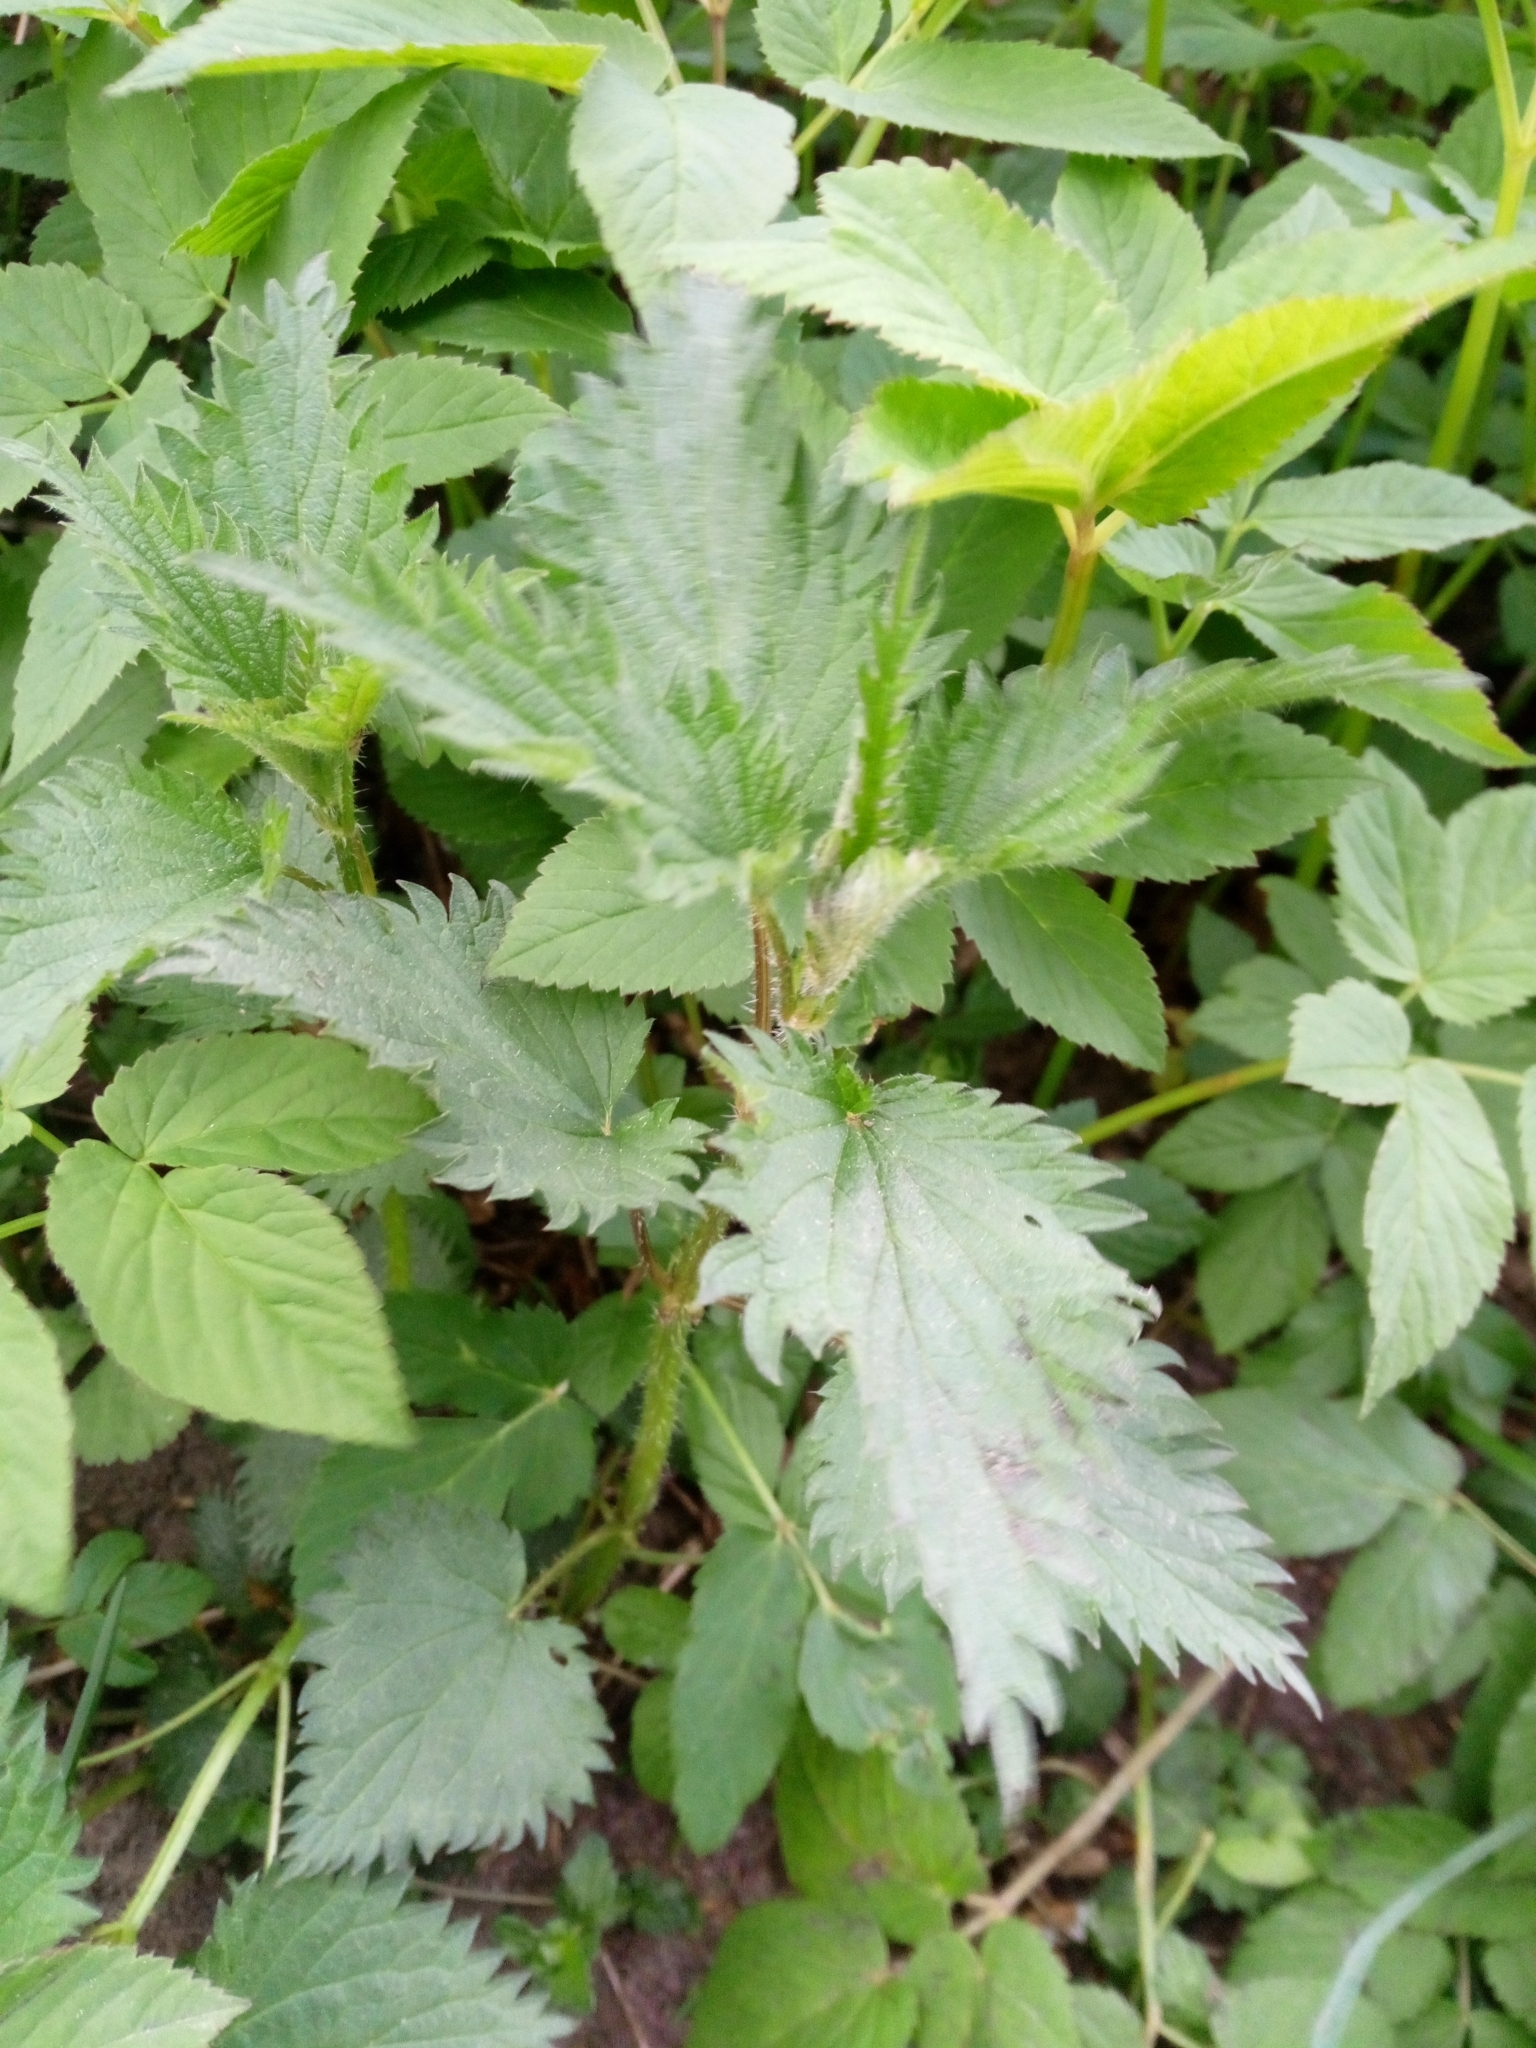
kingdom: Plantae
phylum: Tracheophyta
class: Magnoliopsida
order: Rosales
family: Urticaceae
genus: Urtica
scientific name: Urtica dioica
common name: Common nettle
